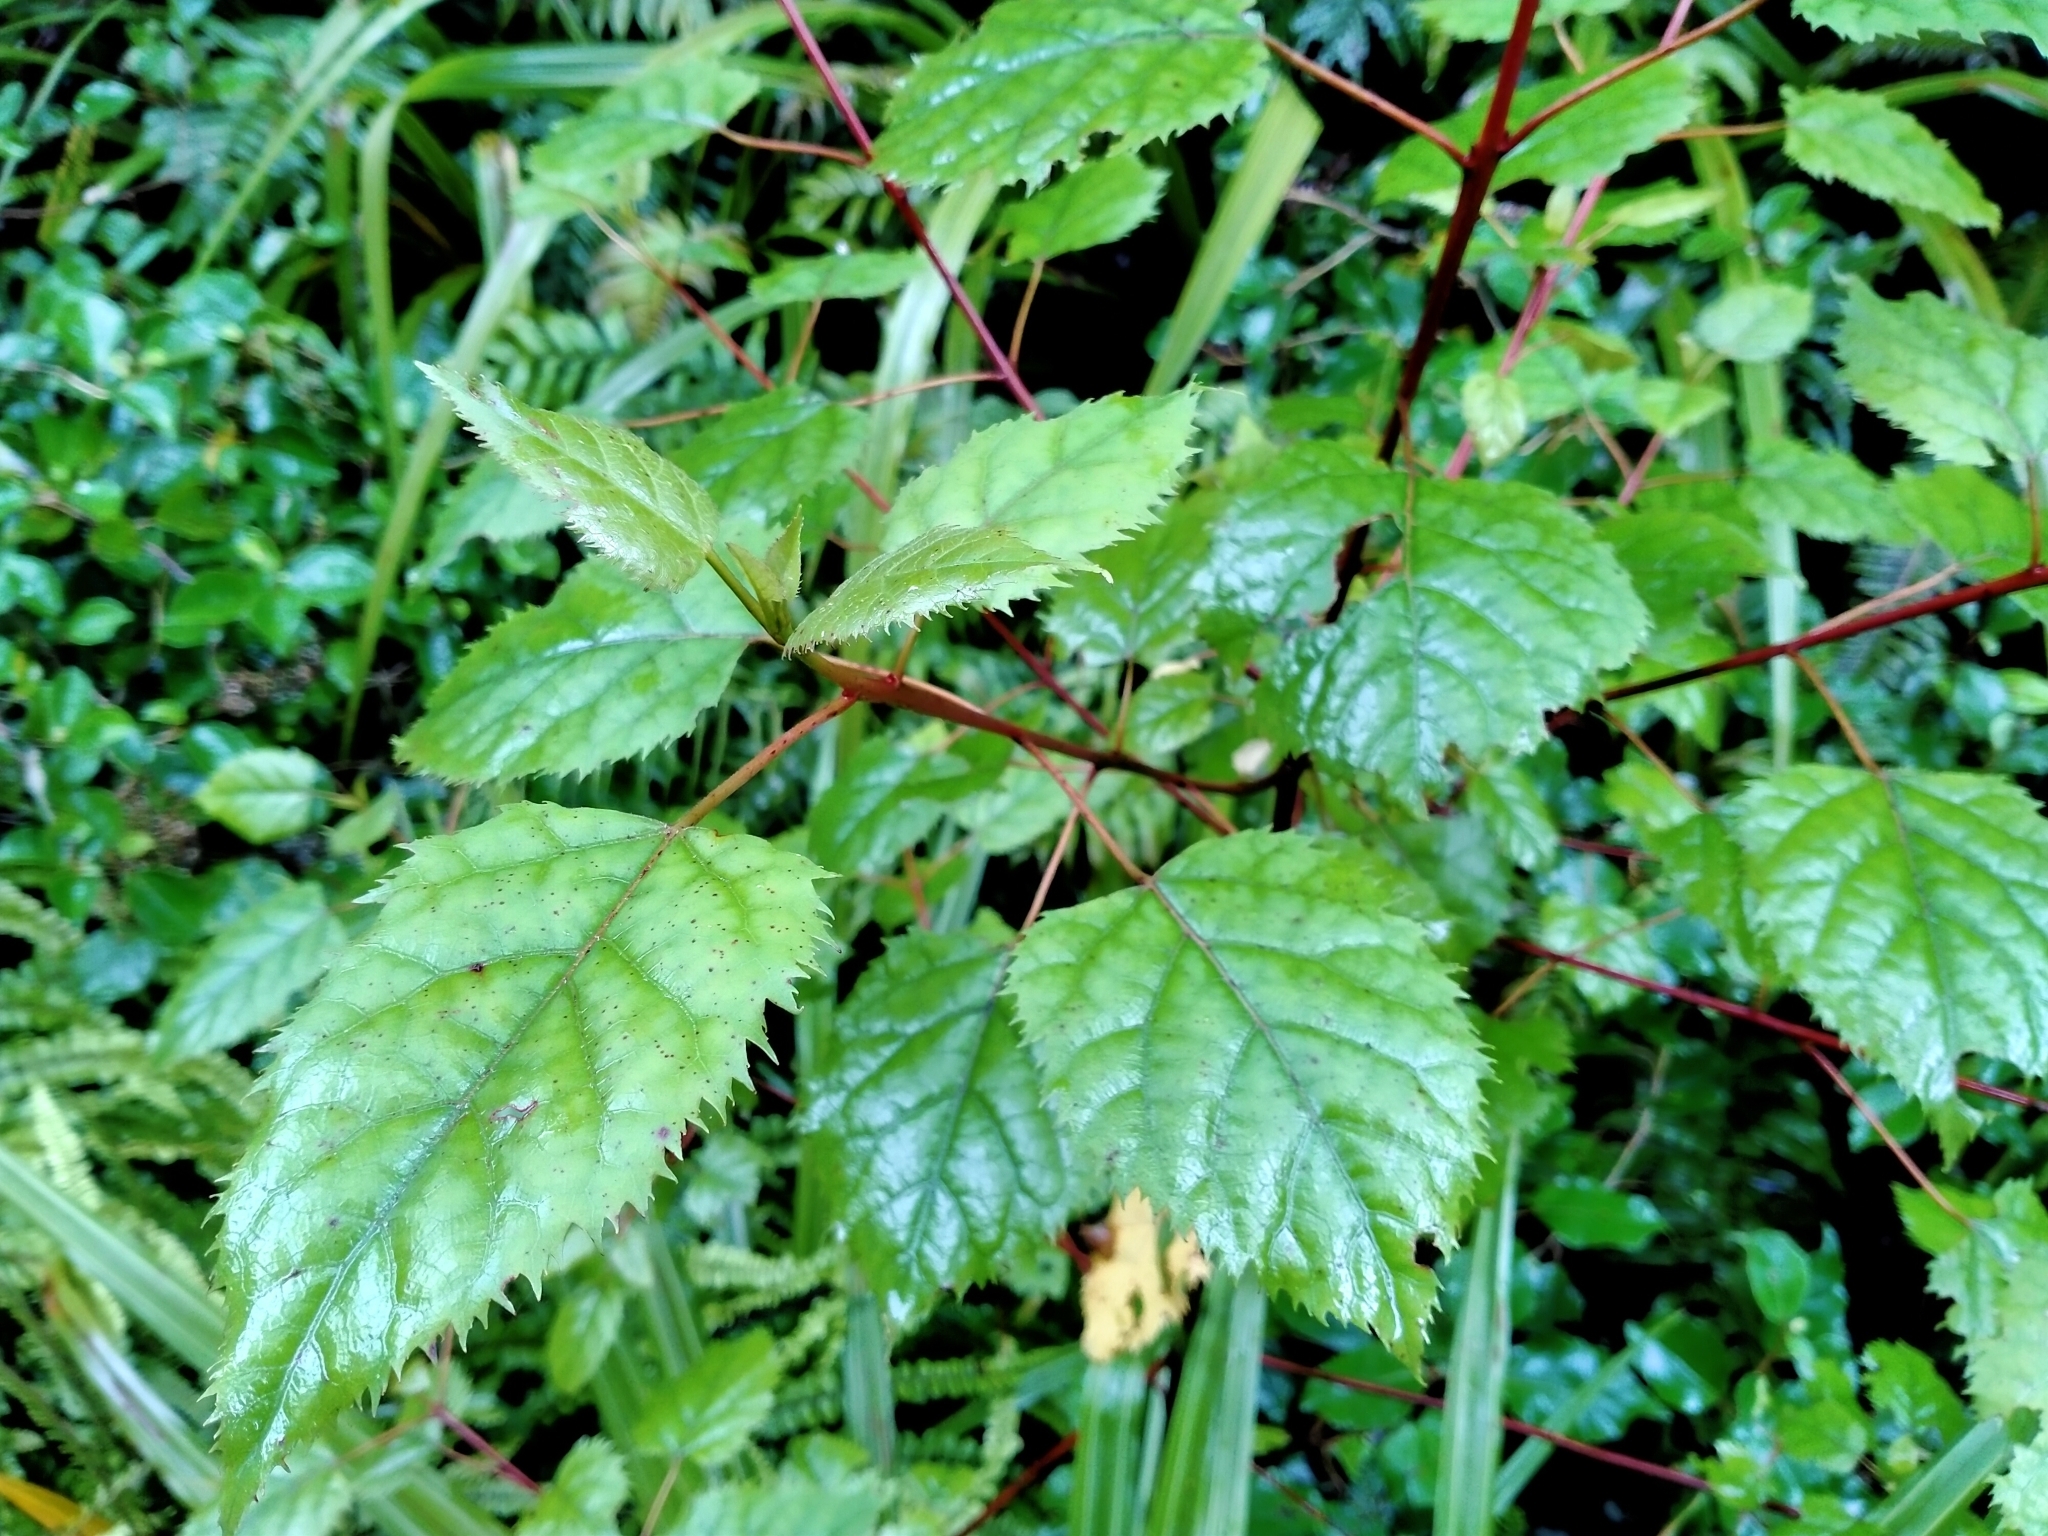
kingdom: Plantae
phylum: Tracheophyta
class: Magnoliopsida
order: Oxalidales
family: Elaeocarpaceae
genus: Aristotelia
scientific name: Aristotelia serrata
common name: New zealand wineberry
